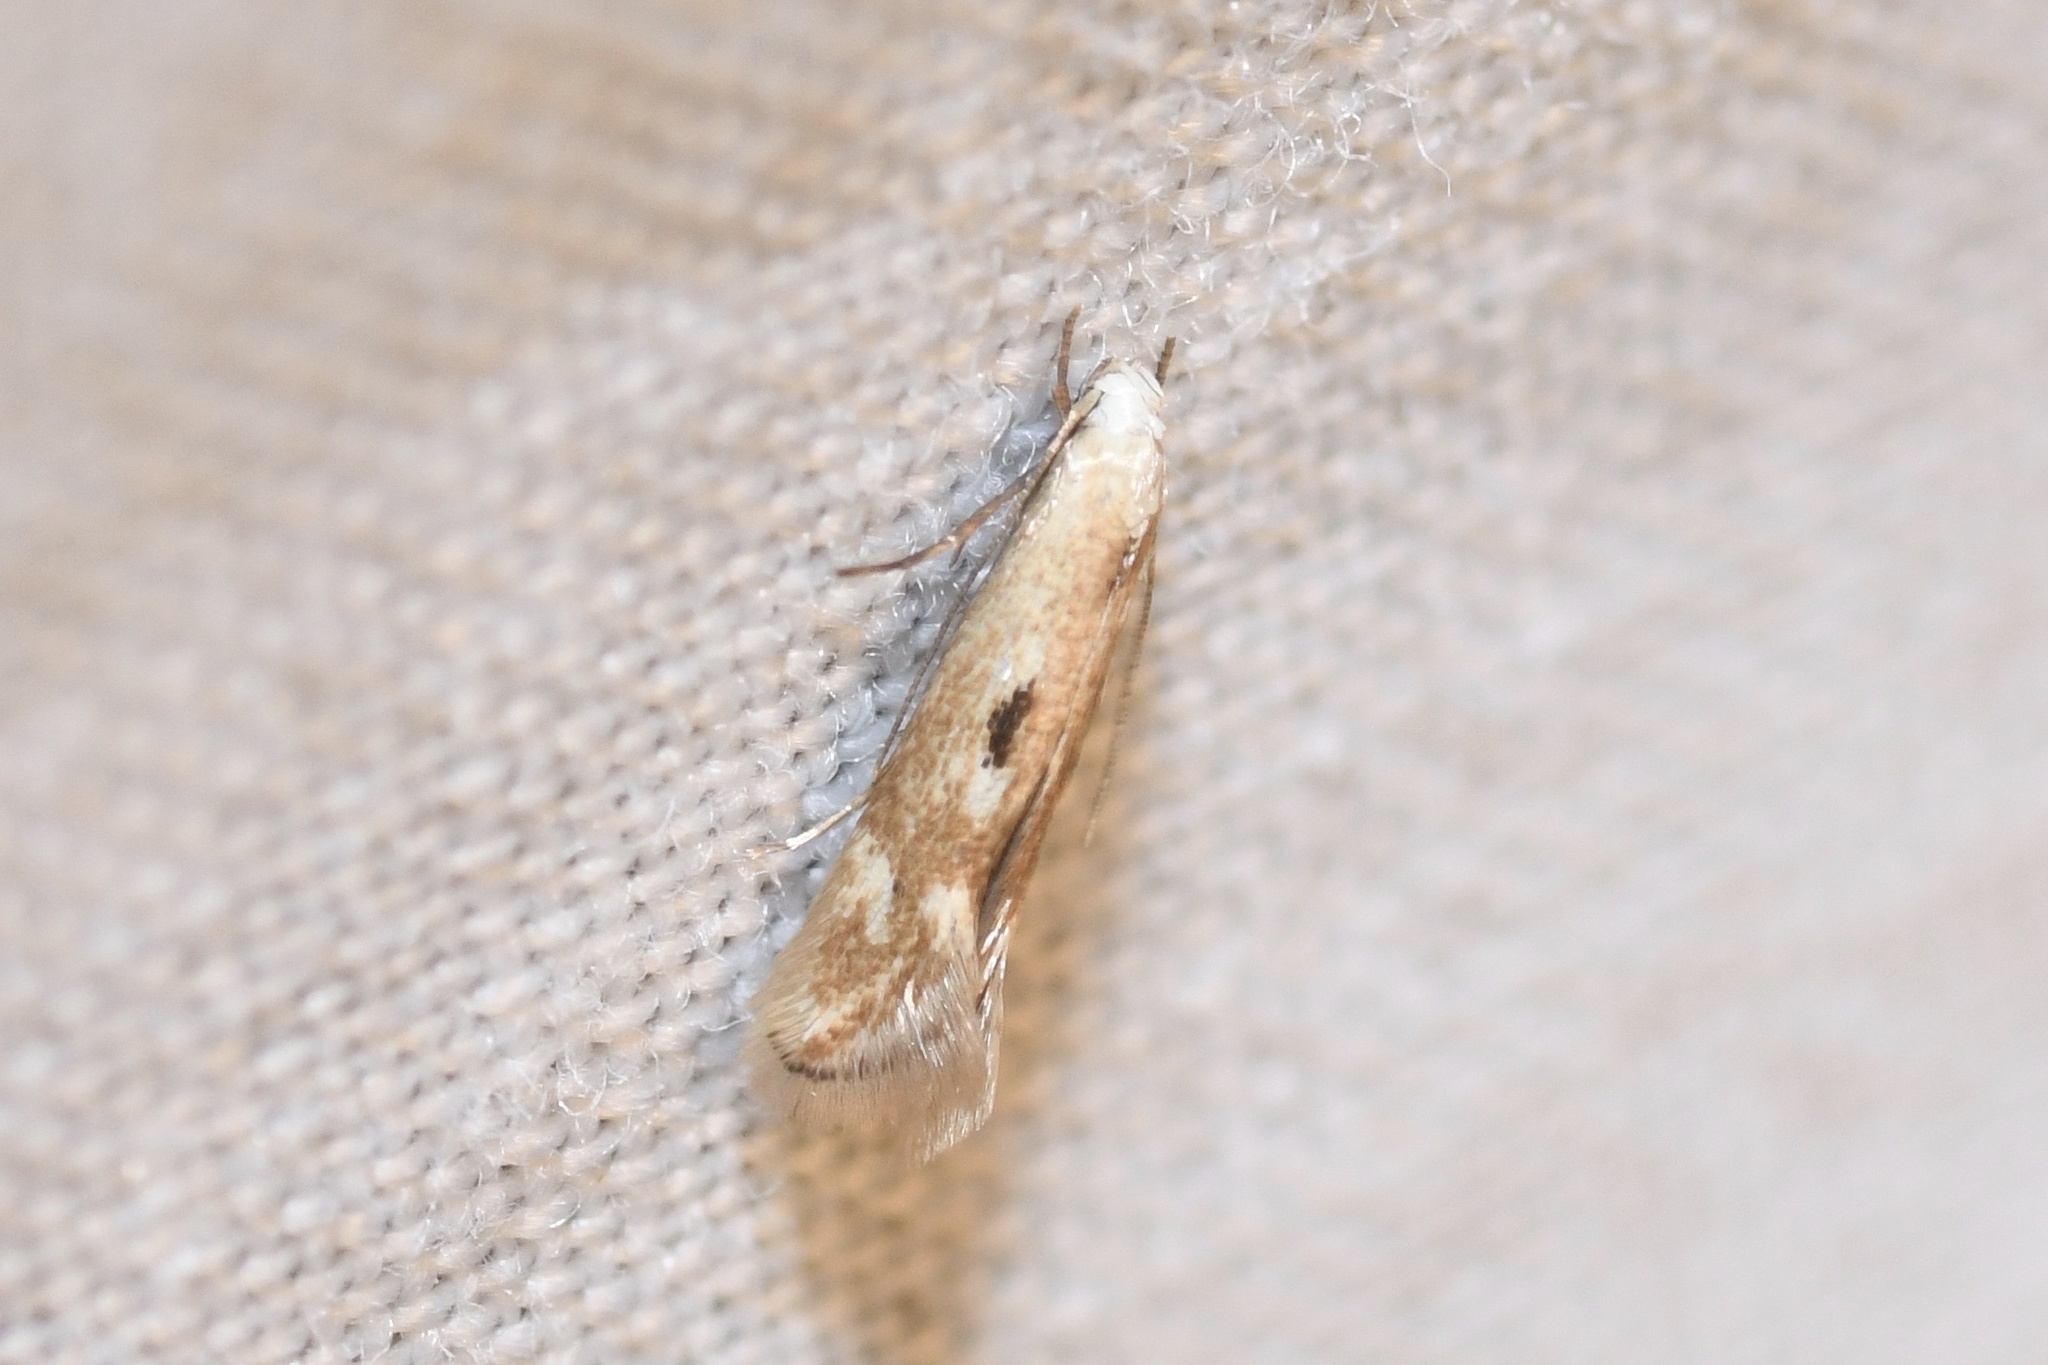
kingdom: Animalia
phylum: Arthropoda
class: Insecta
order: Lepidoptera
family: Elachistidae
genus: Elachista
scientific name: Elachista albidella
